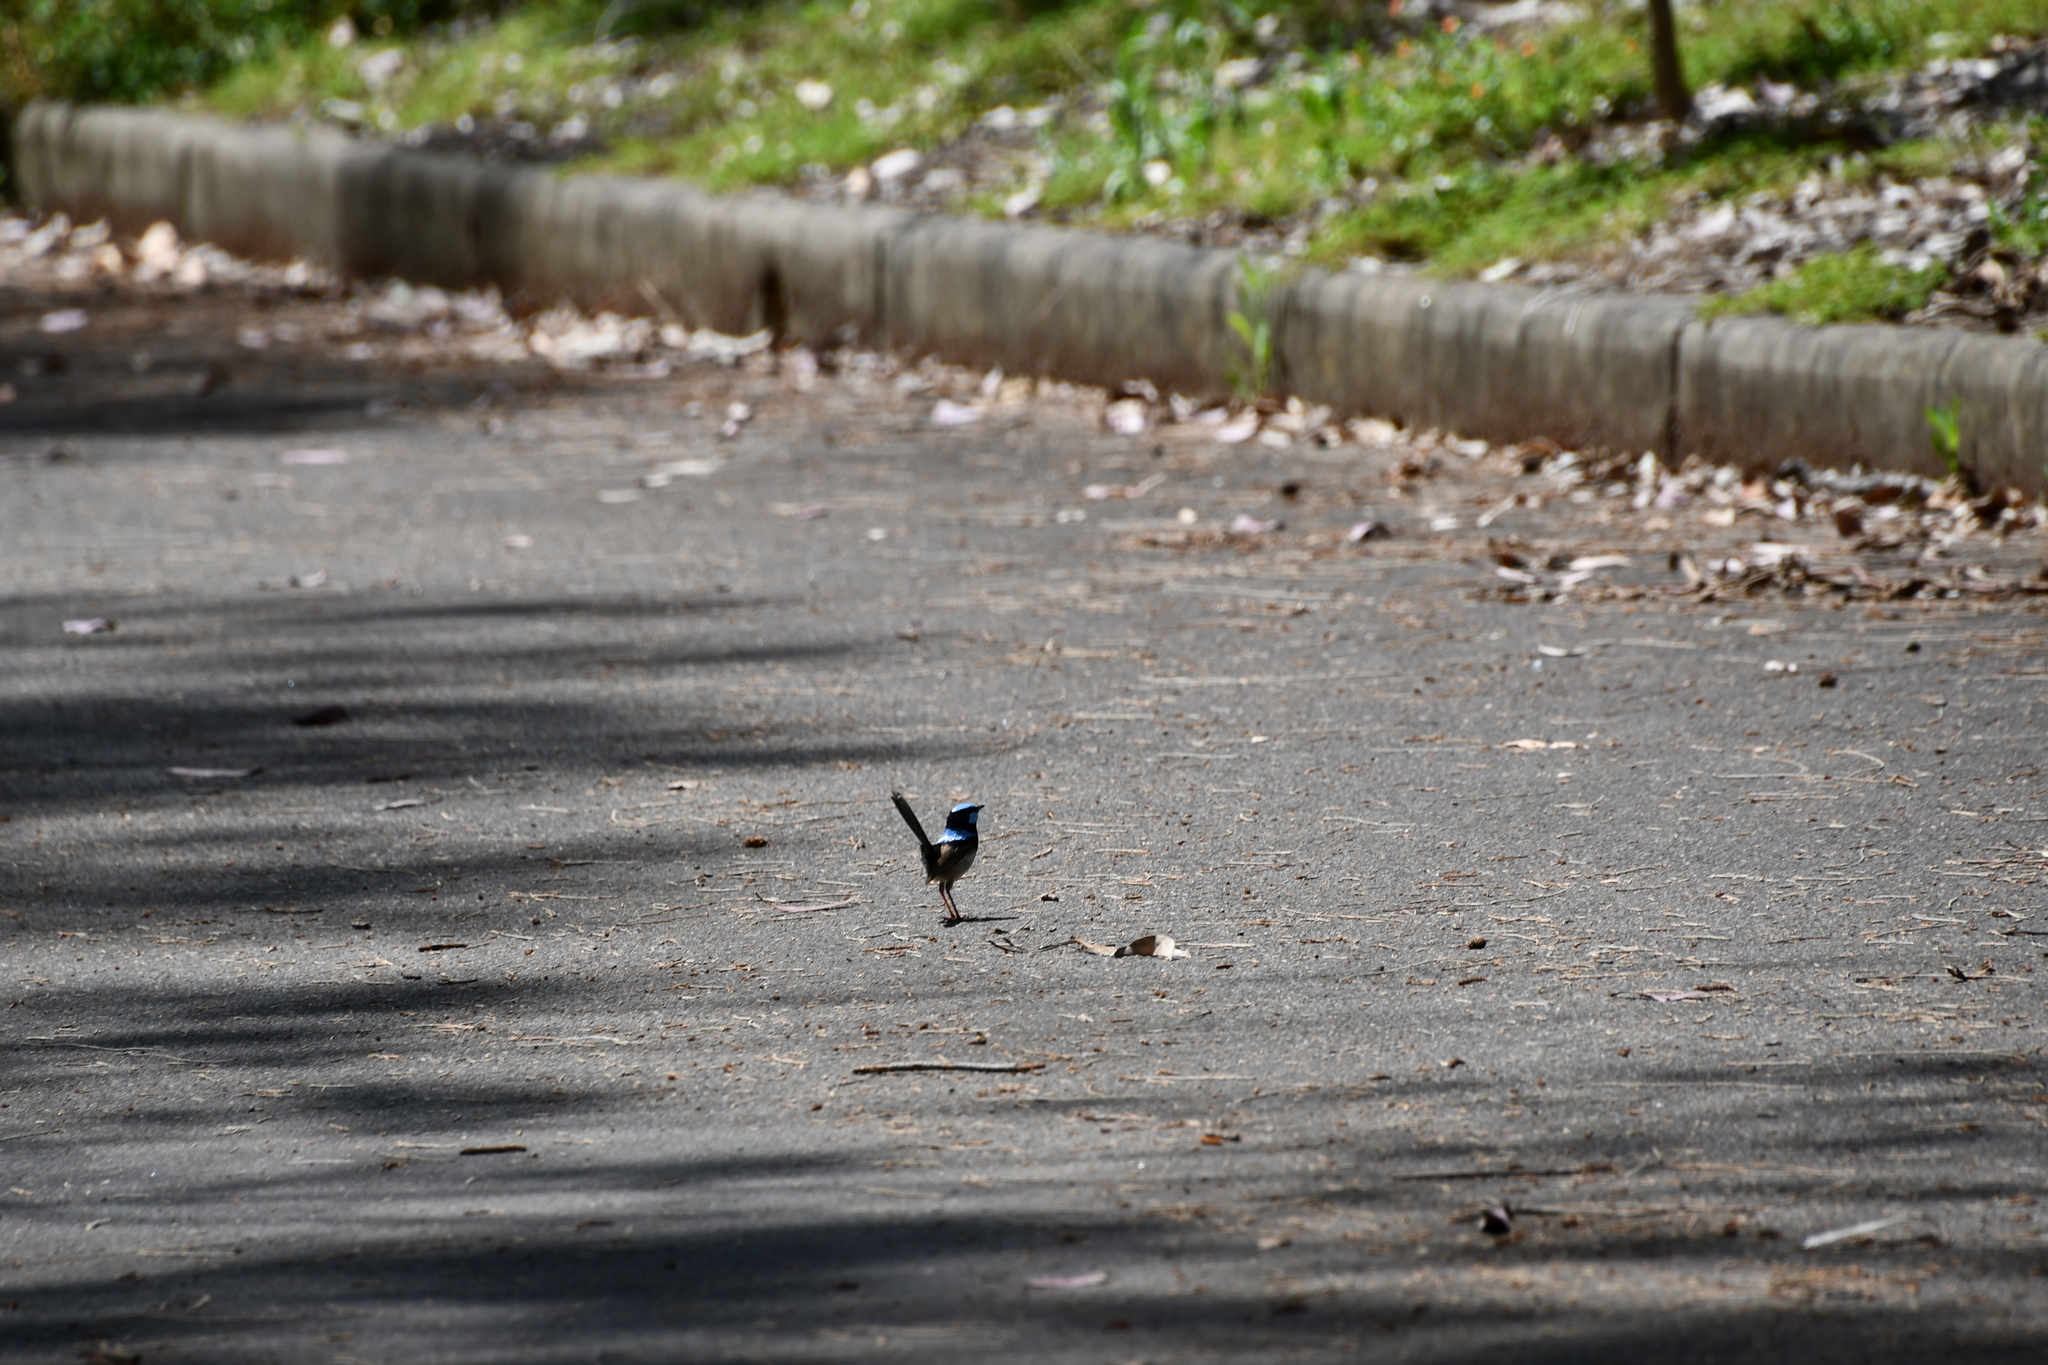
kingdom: Animalia
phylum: Chordata
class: Aves
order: Passeriformes
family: Maluridae
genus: Malurus
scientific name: Malurus cyaneus
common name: Superb fairywren
